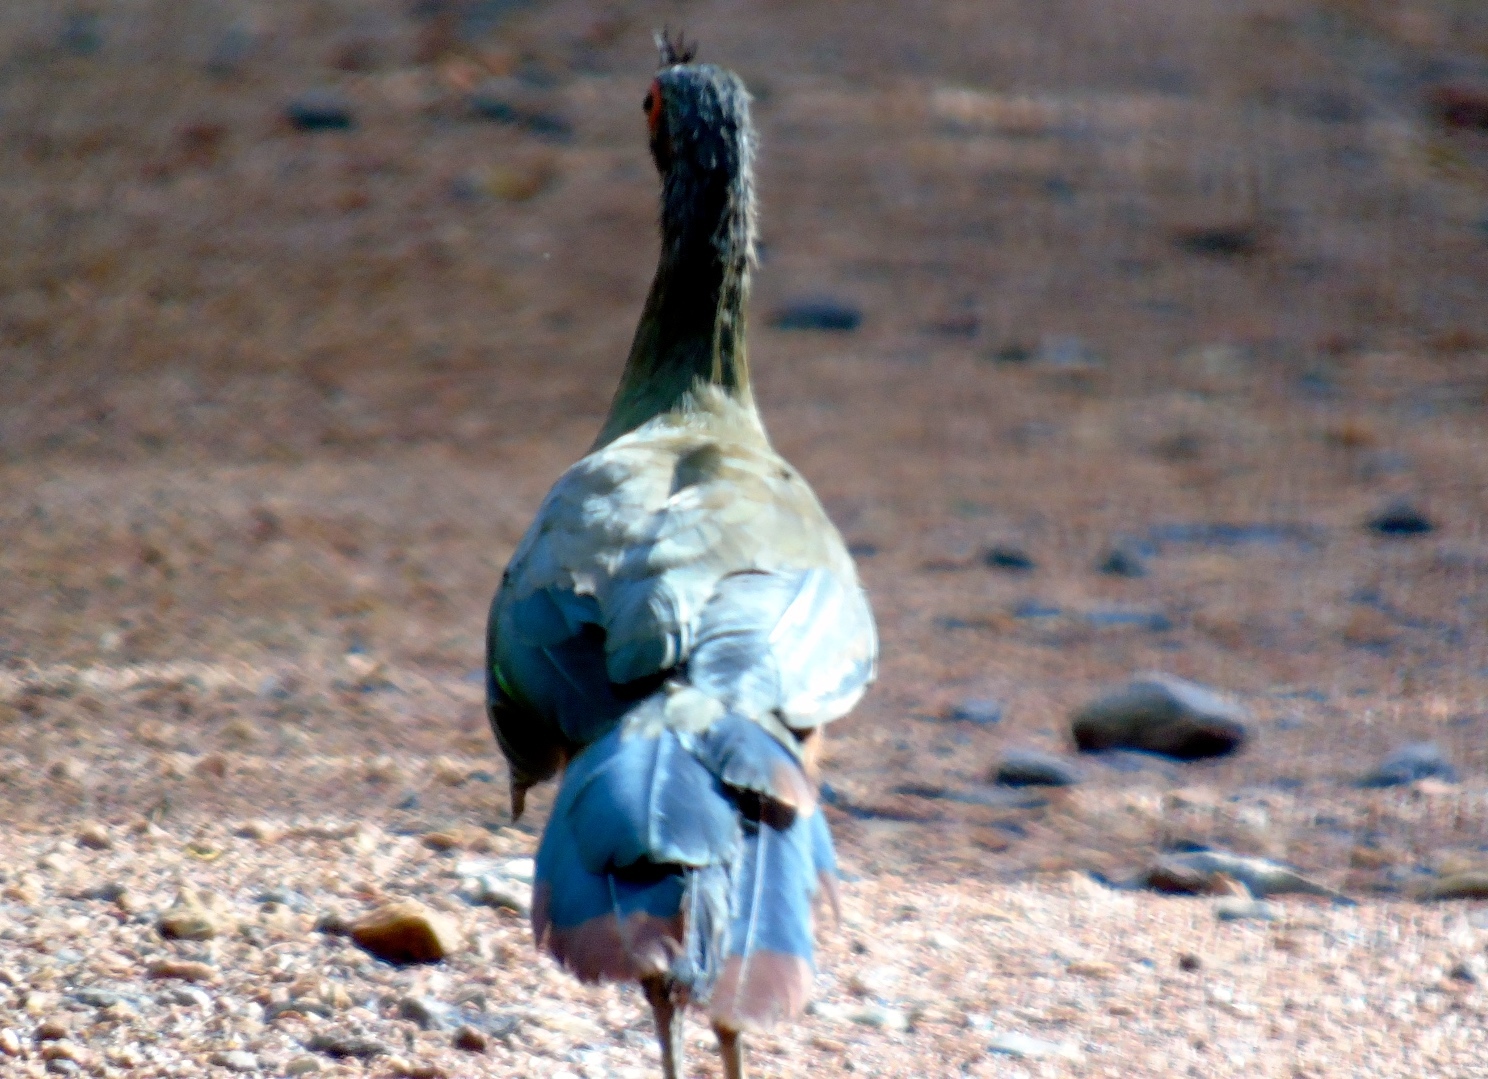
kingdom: Animalia
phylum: Chordata
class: Aves
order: Galliformes
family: Cracidae
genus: Ortalis
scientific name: Ortalis wagleri
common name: Rufous-bellied chachalaca
